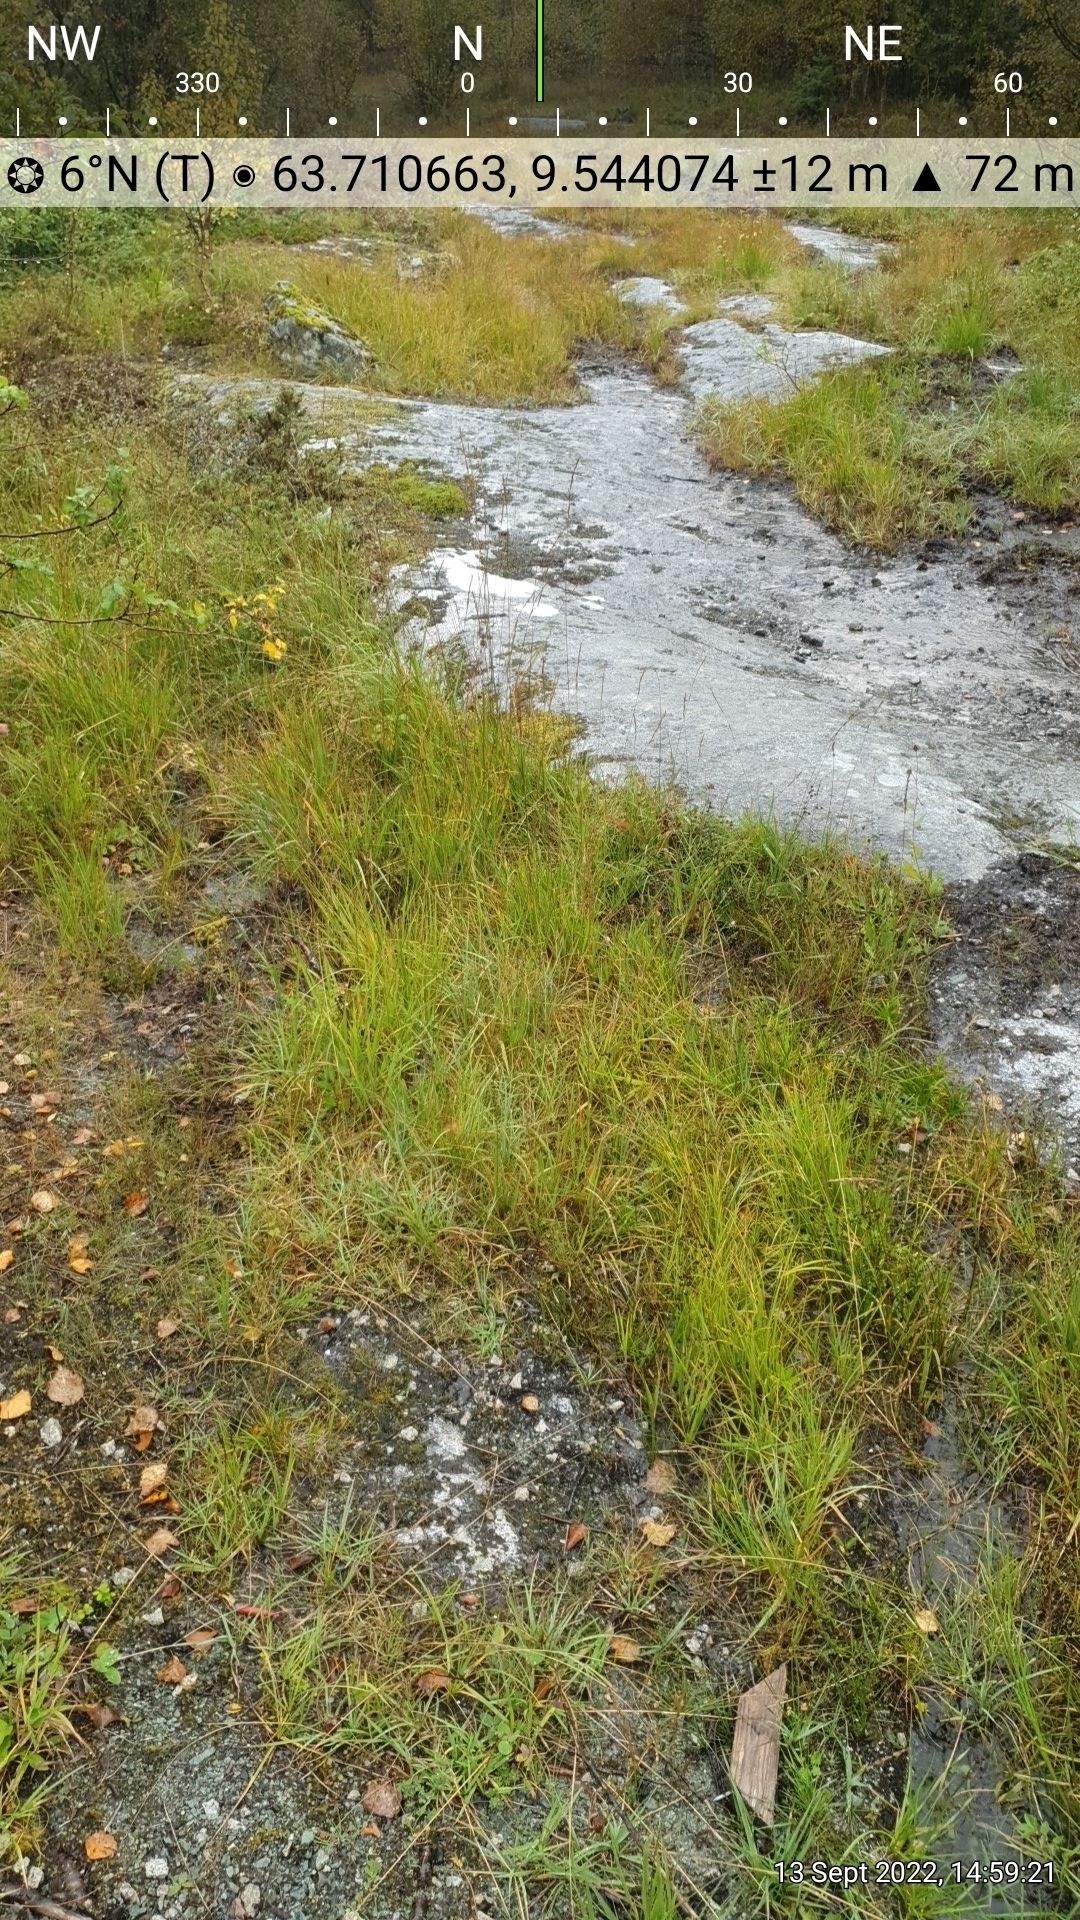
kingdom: Plantae
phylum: Tracheophyta
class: Liliopsida
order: Poales
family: Poaceae
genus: Briza
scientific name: Briza media
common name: Quaking grass
